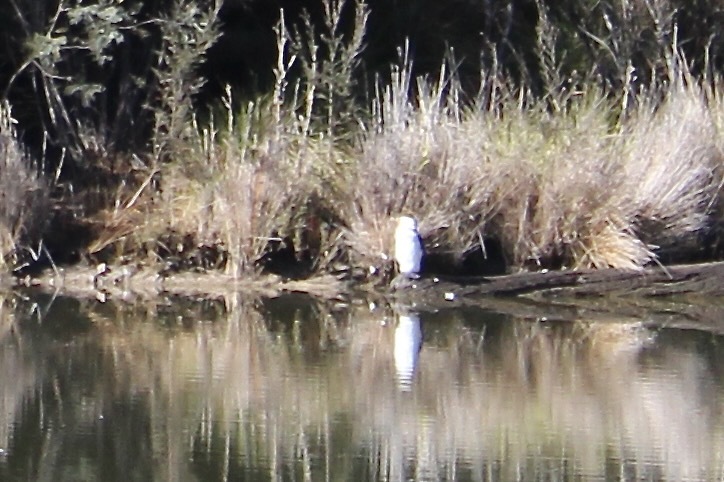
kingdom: Animalia
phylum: Chordata
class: Aves
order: Suliformes
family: Phalacrocoracidae
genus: Microcarbo
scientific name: Microcarbo melanoleucos
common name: Little pied cormorant
